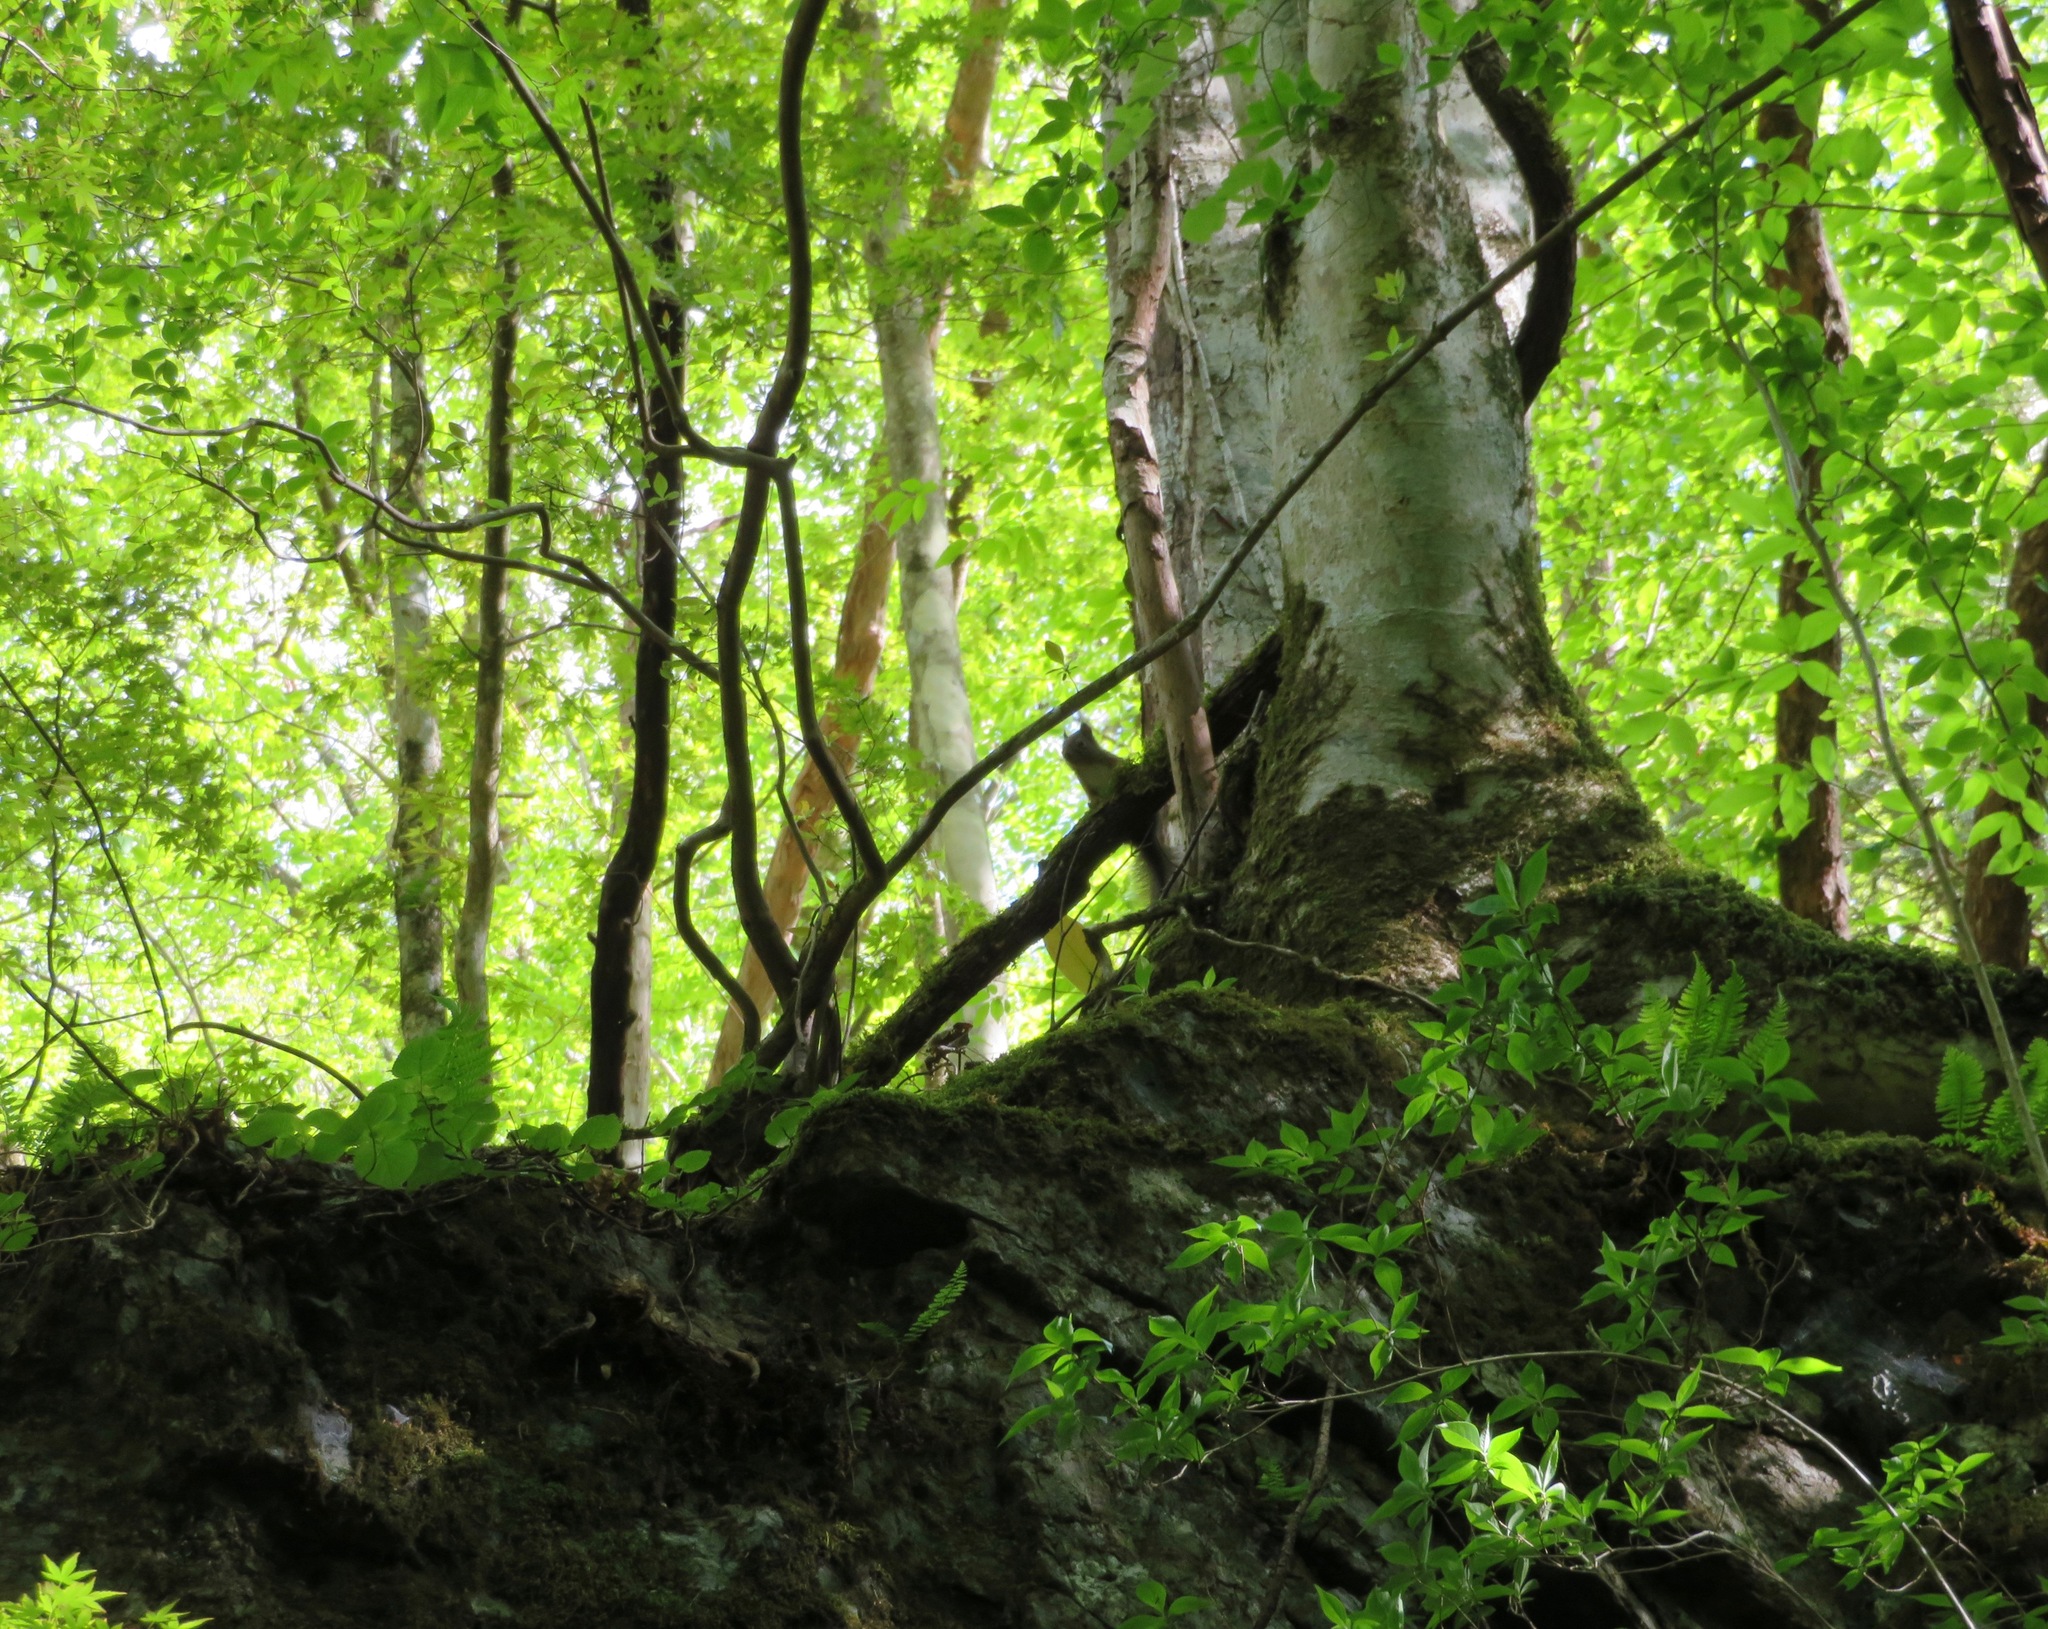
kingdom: Animalia
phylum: Chordata
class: Mammalia
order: Rodentia
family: Sciuridae
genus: Sciurus
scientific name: Sciurus lis
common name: Japanese squirrel
